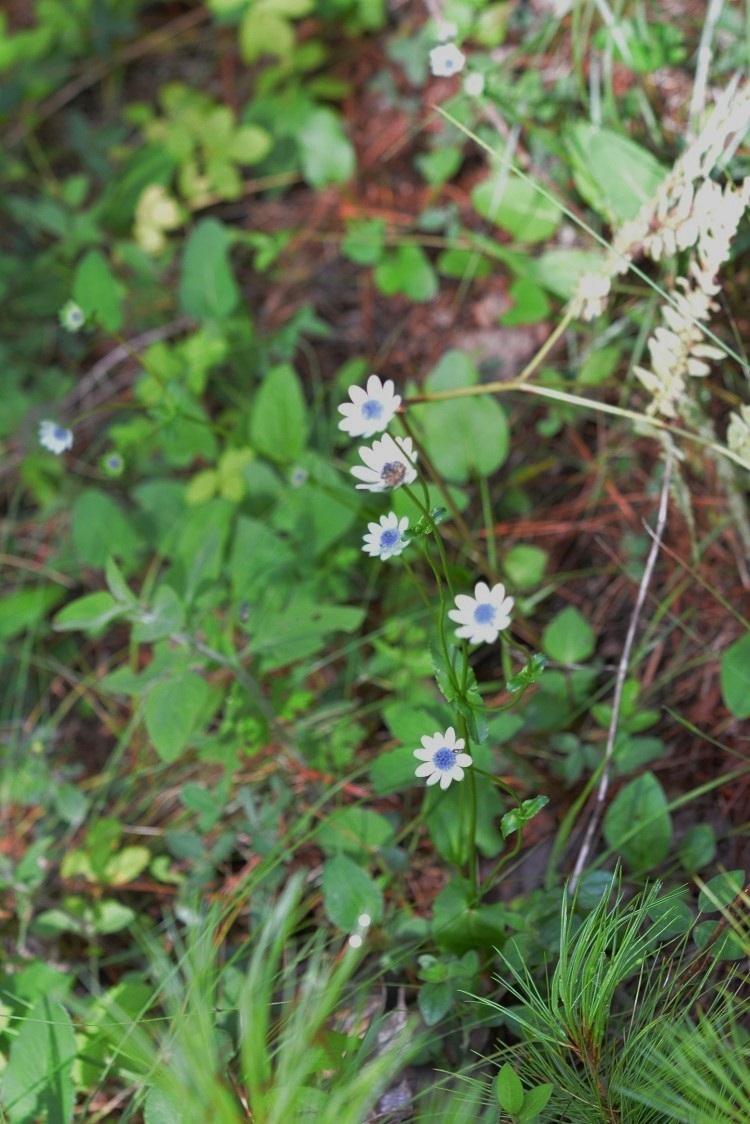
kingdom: Plantae
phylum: Tracheophyta
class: Magnoliopsida
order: Apiales
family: Apiaceae
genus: Eryngium
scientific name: Eryngium scaposum
